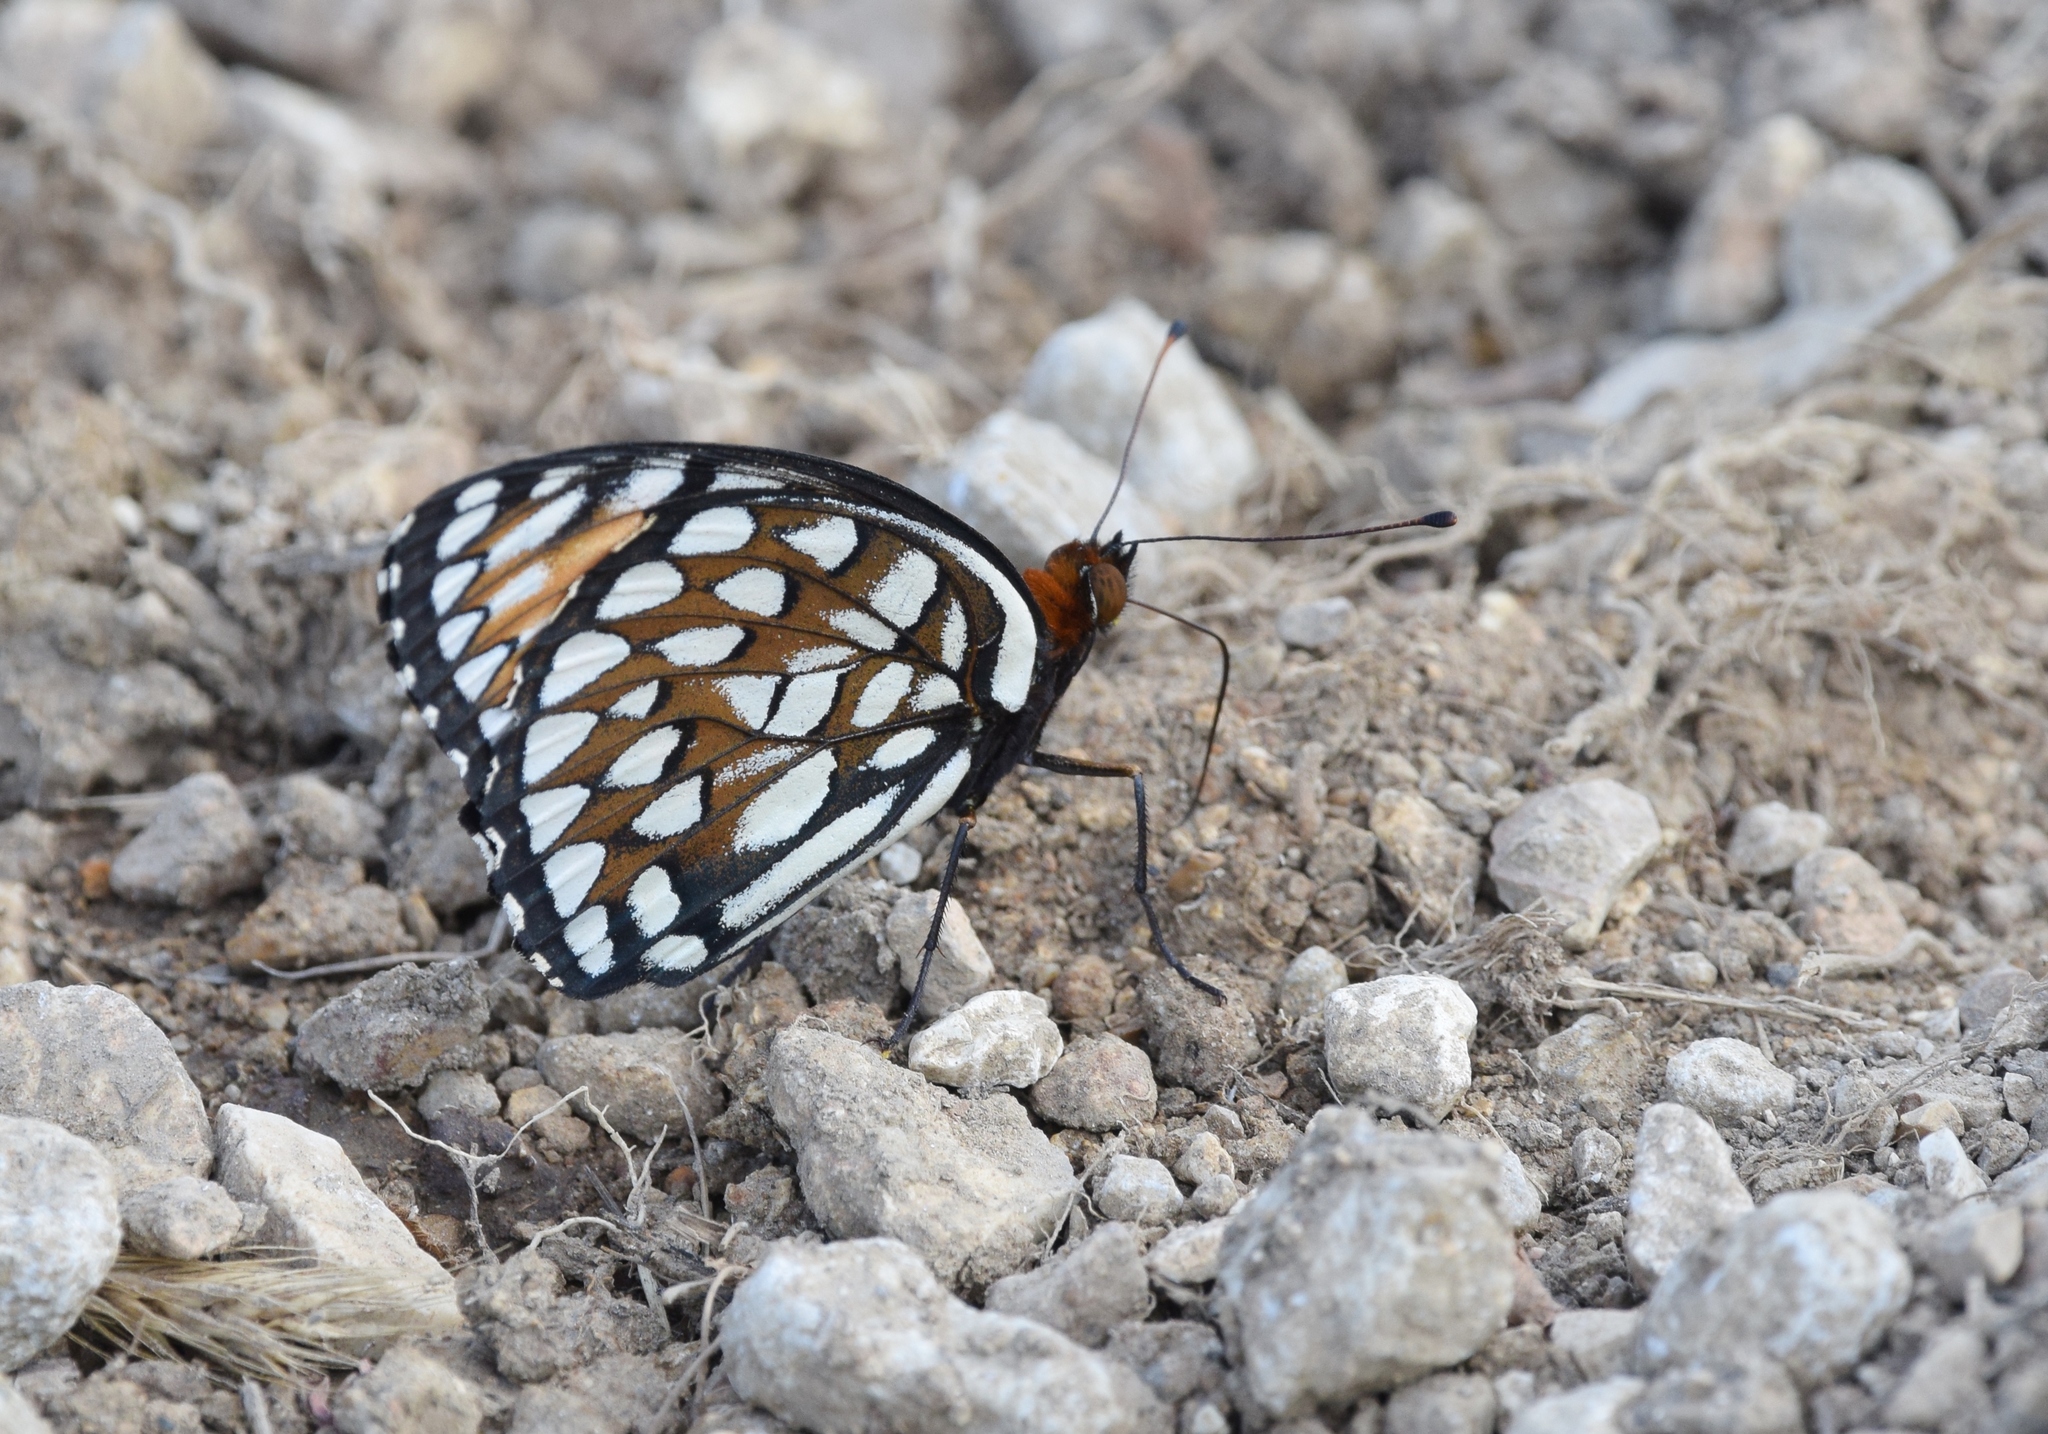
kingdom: Animalia
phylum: Arthropoda
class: Insecta
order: Lepidoptera
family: Nymphalidae
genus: Speyeria
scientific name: Speyeria idalia
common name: Regal fritillary
